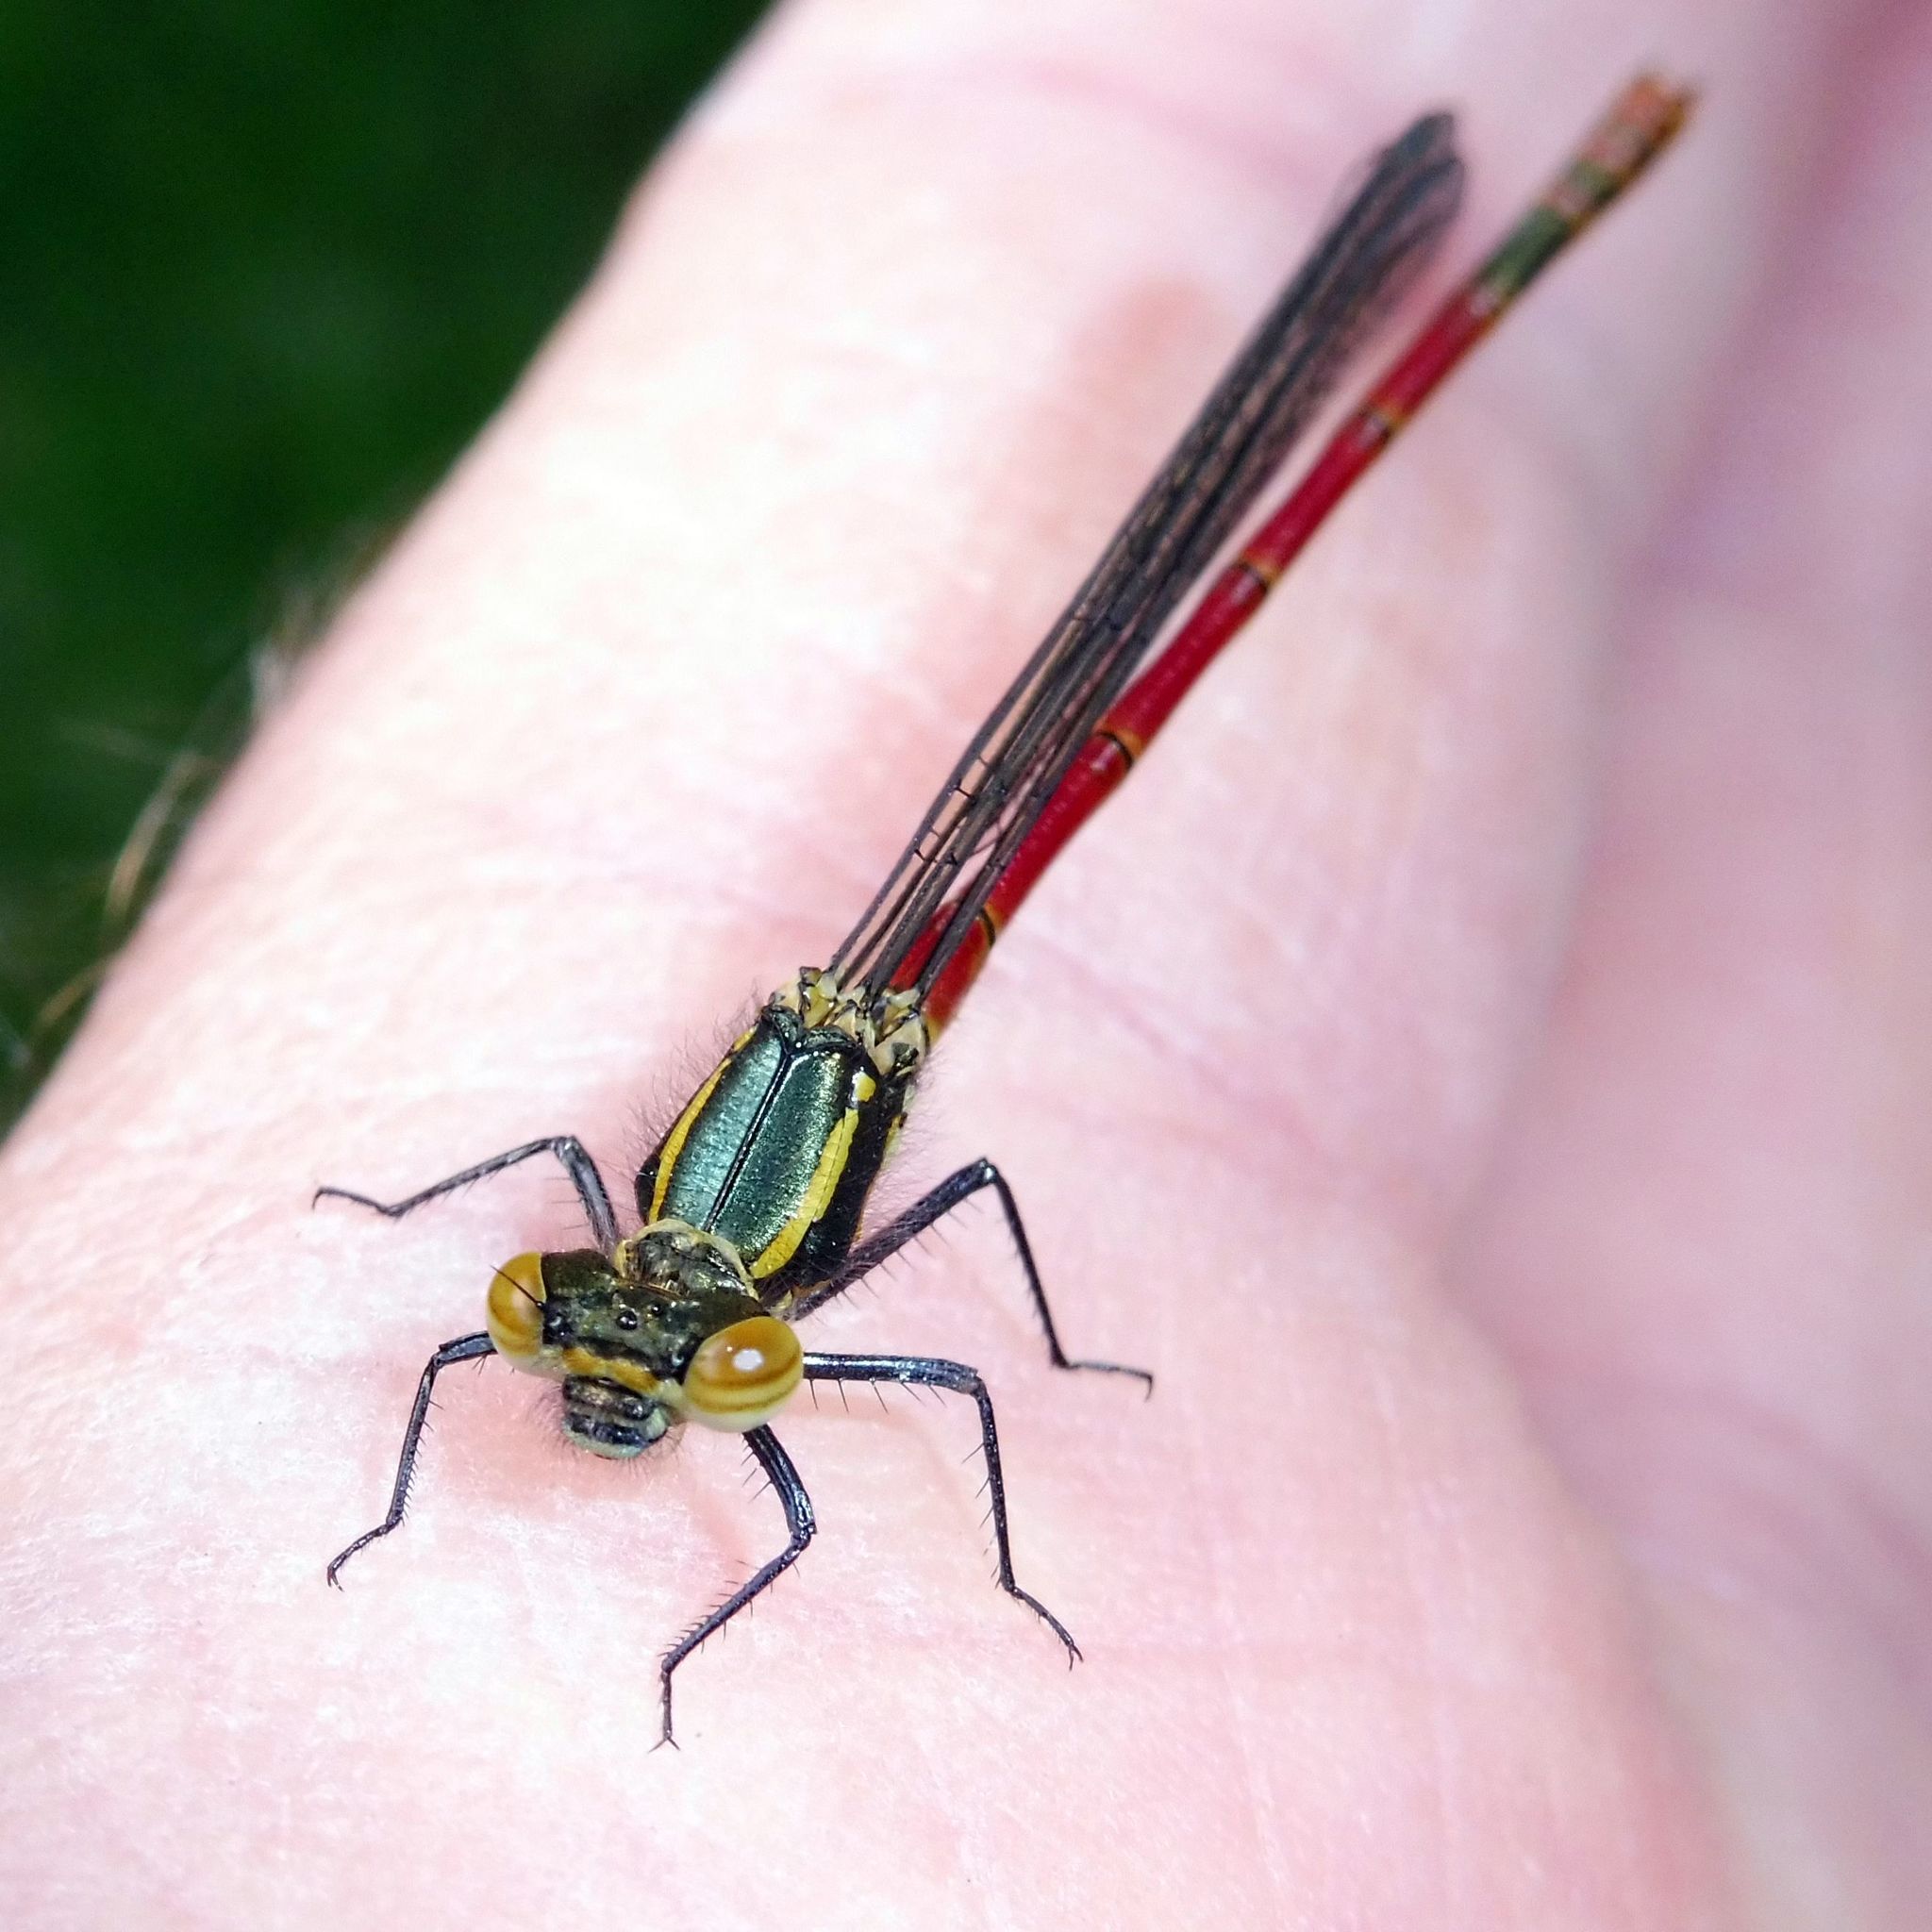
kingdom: Animalia
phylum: Arthropoda
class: Insecta
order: Odonata
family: Coenagrionidae
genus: Pyrrhosoma
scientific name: Pyrrhosoma nymphula
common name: Large red damsel
